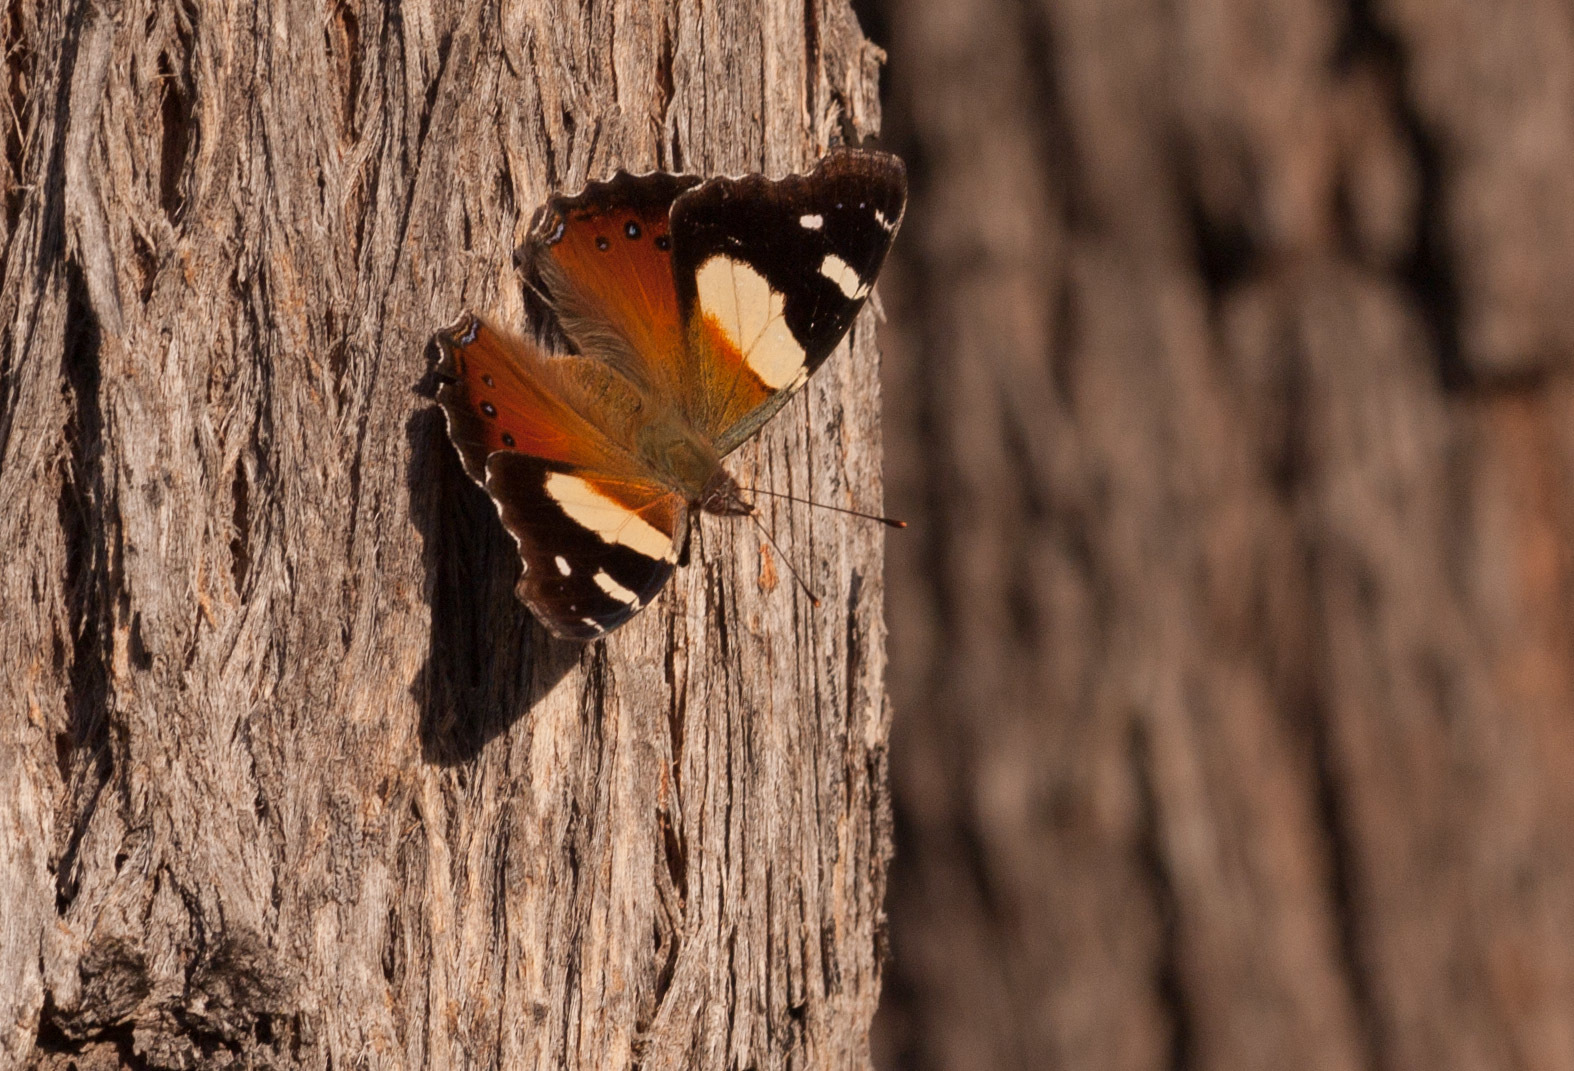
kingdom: Animalia
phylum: Arthropoda
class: Insecta
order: Lepidoptera
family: Nymphalidae
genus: Vanessa
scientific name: Vanessa itea
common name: Yellow admiral
